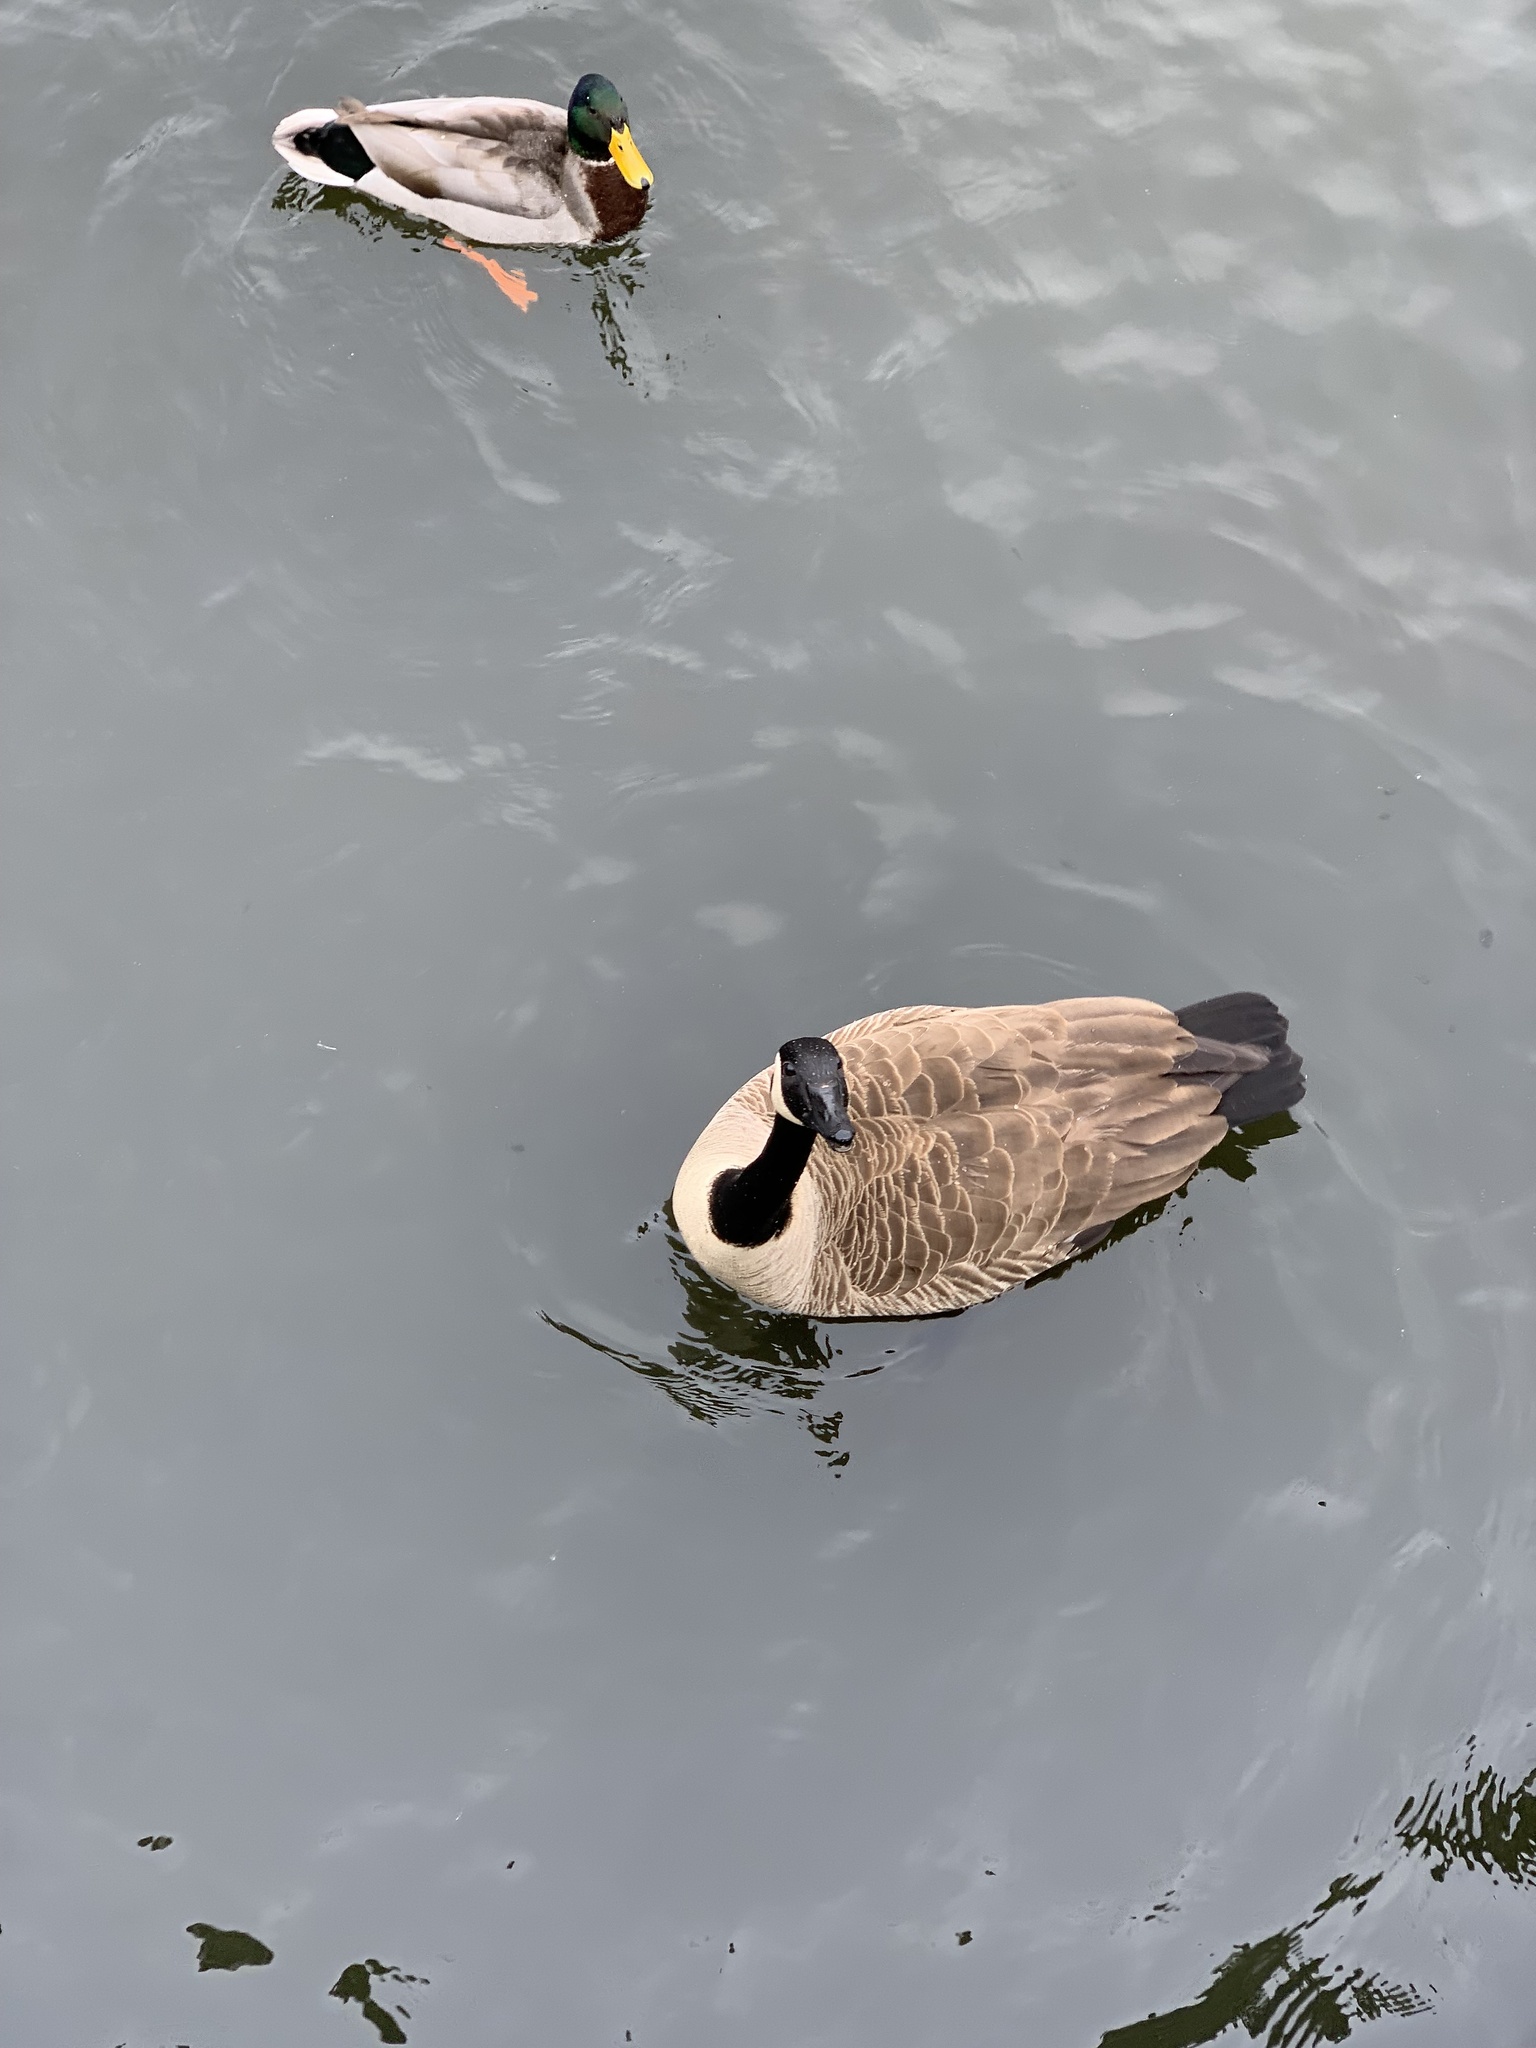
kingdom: Animalia
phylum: Chordata
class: Aves
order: Anseriformes
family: Anatidae
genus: Branta
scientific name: Branta canadensis
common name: Canada goose
